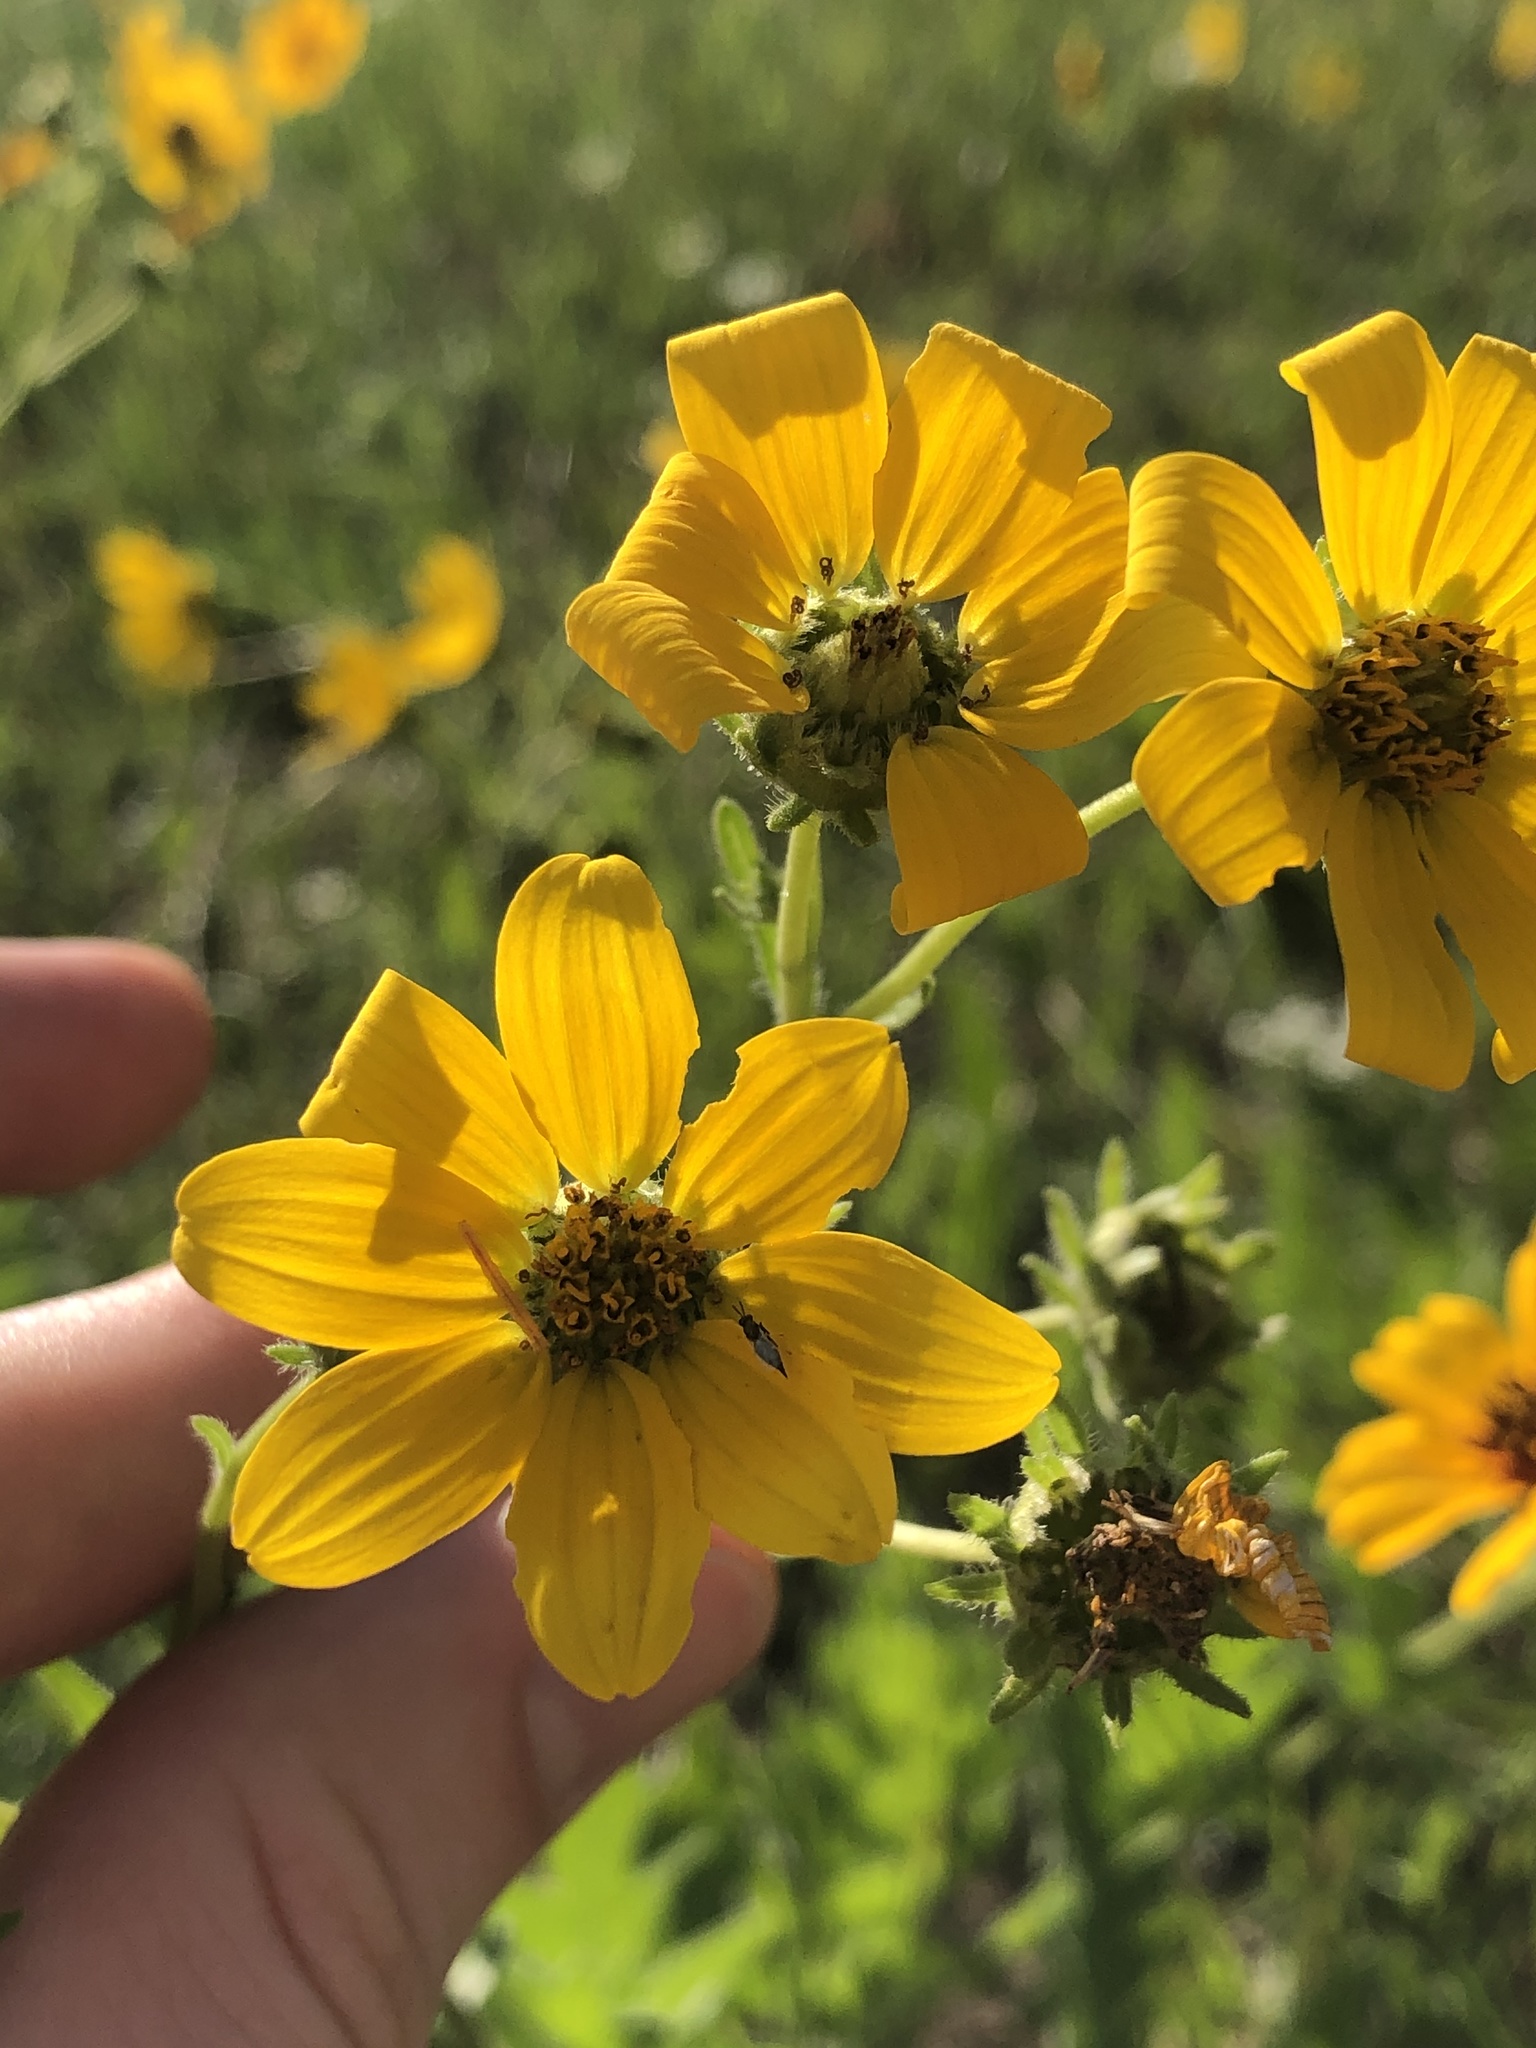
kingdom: Plantae
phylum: Tracheophyta
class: Magnoliopsida
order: Asterales
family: Asteraceae
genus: Engelmannia
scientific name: Engelmannia peristenia
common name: Engelmann's daisy
